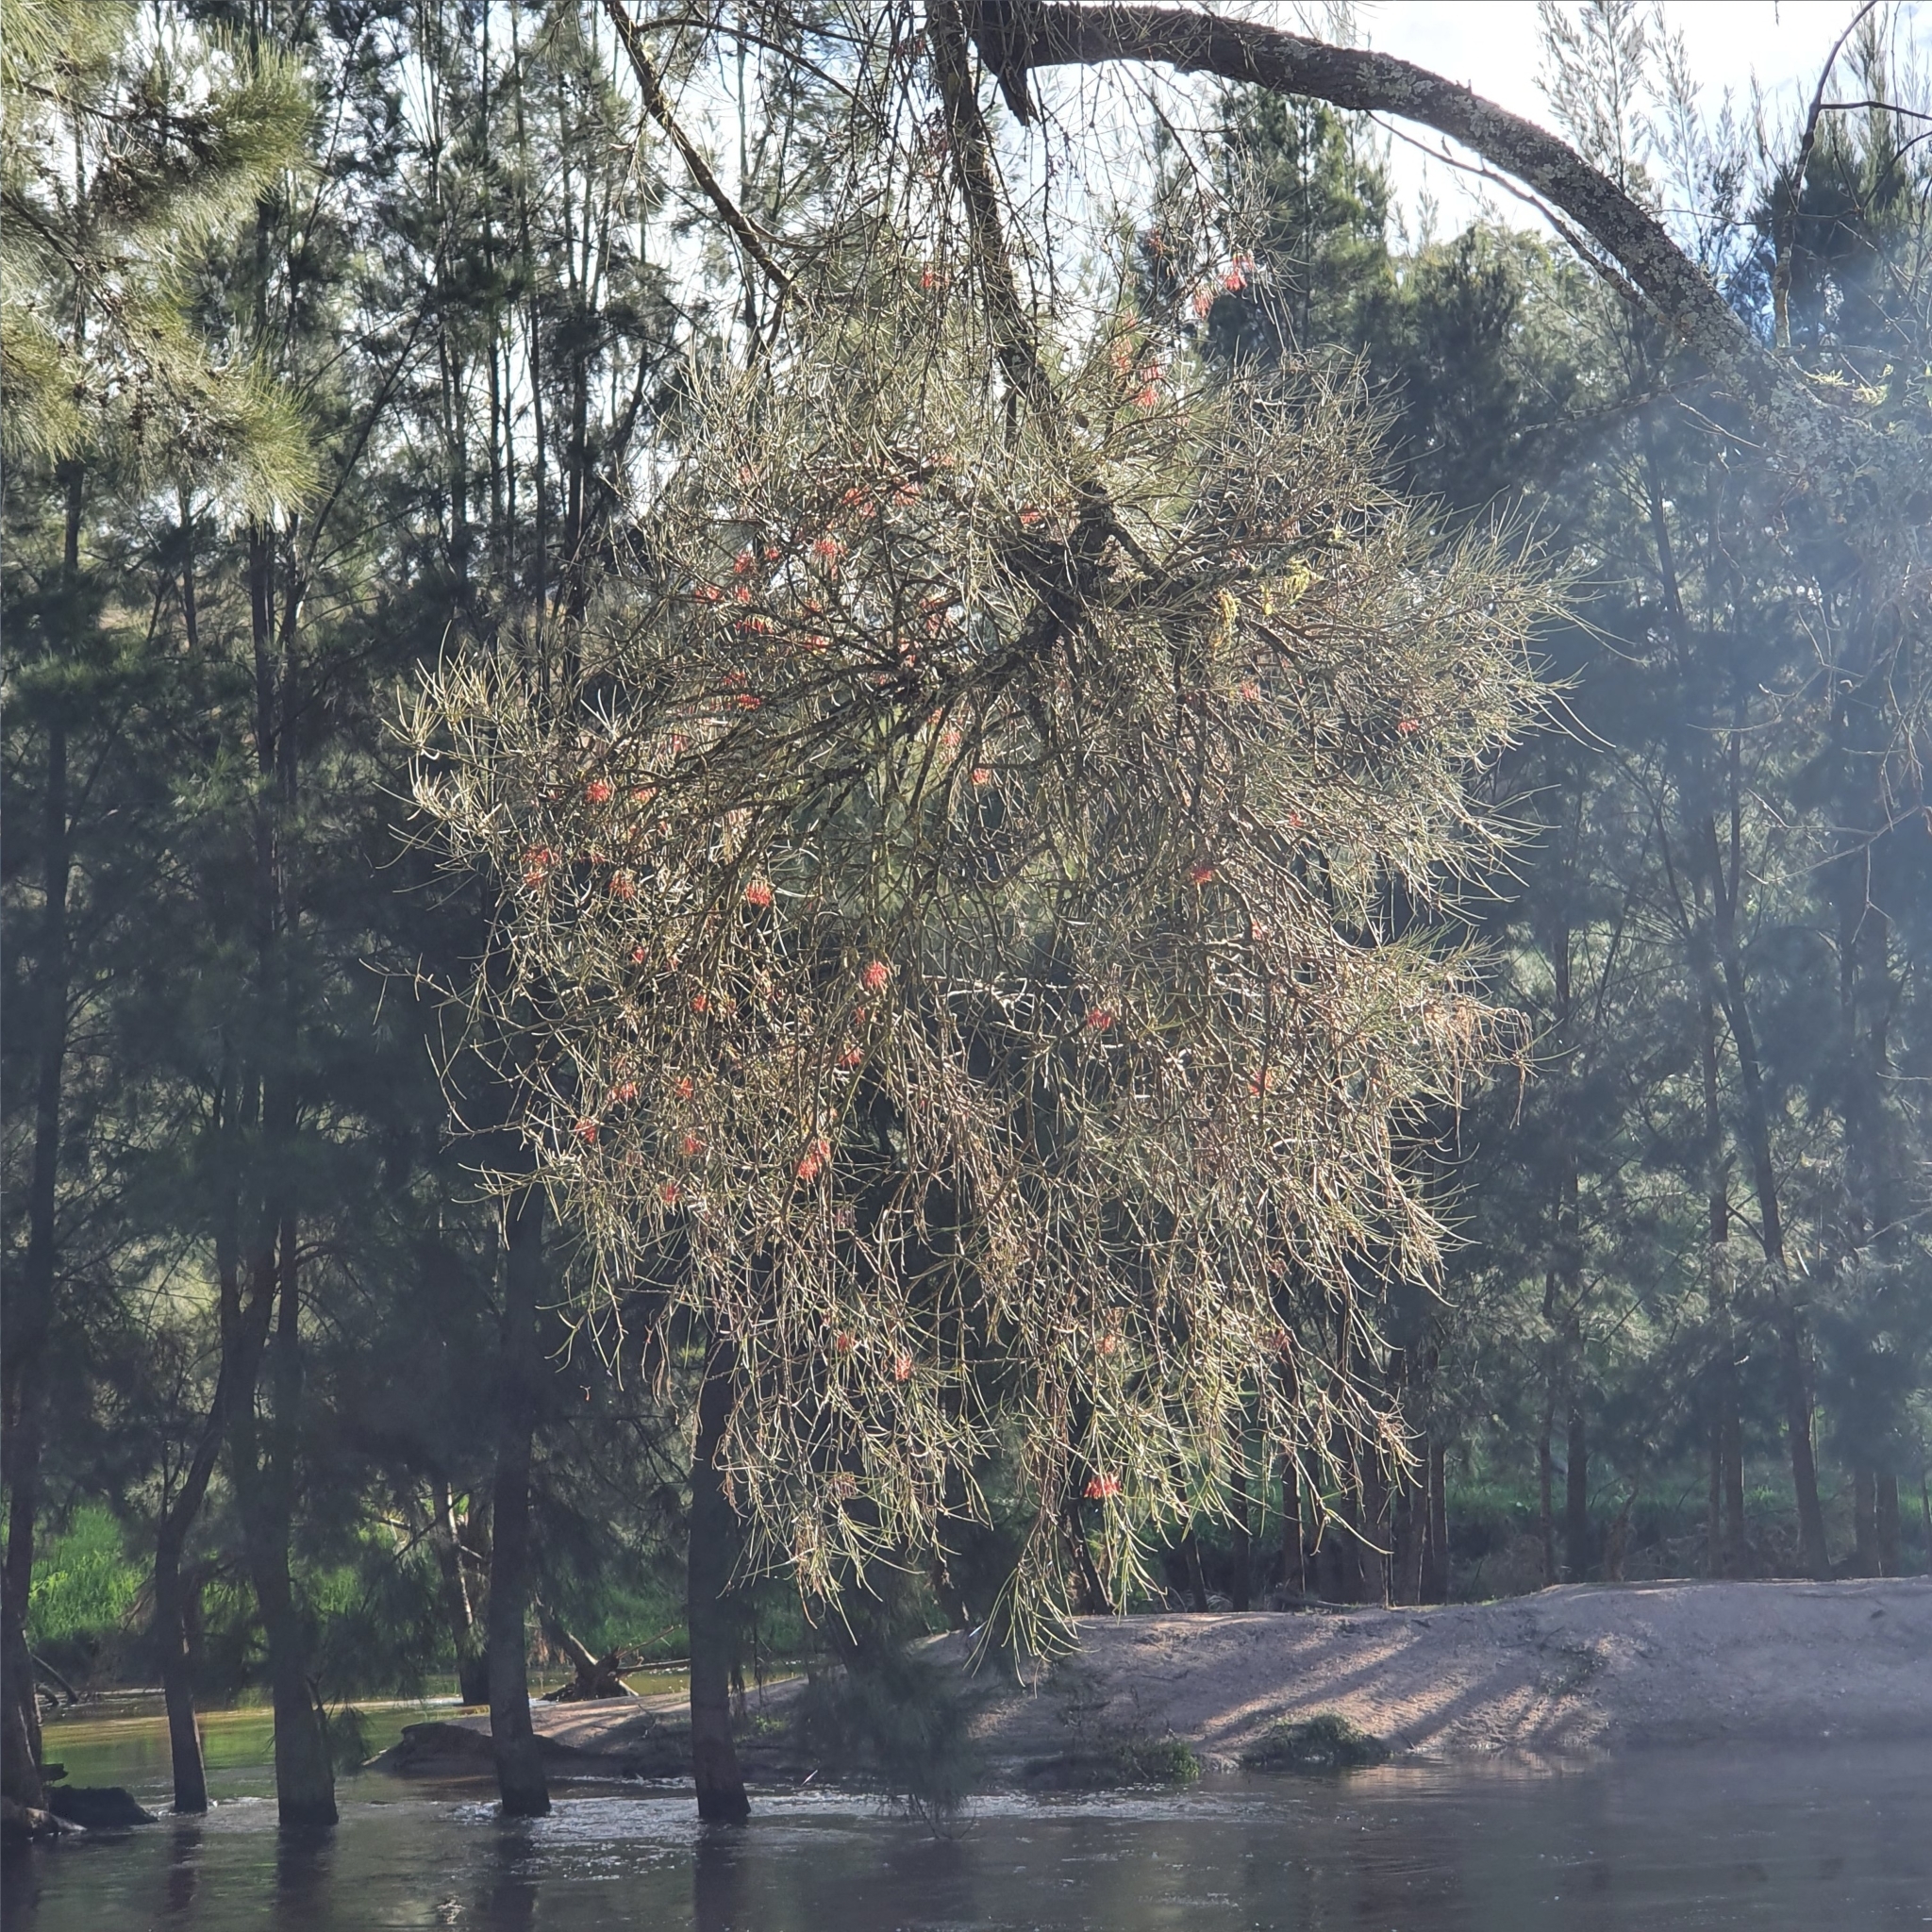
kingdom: Plantae
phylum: Tracheophyta
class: Magnoliopsida
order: Santalales
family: Loranthaceae
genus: Amyema
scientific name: Amyema cambagei
